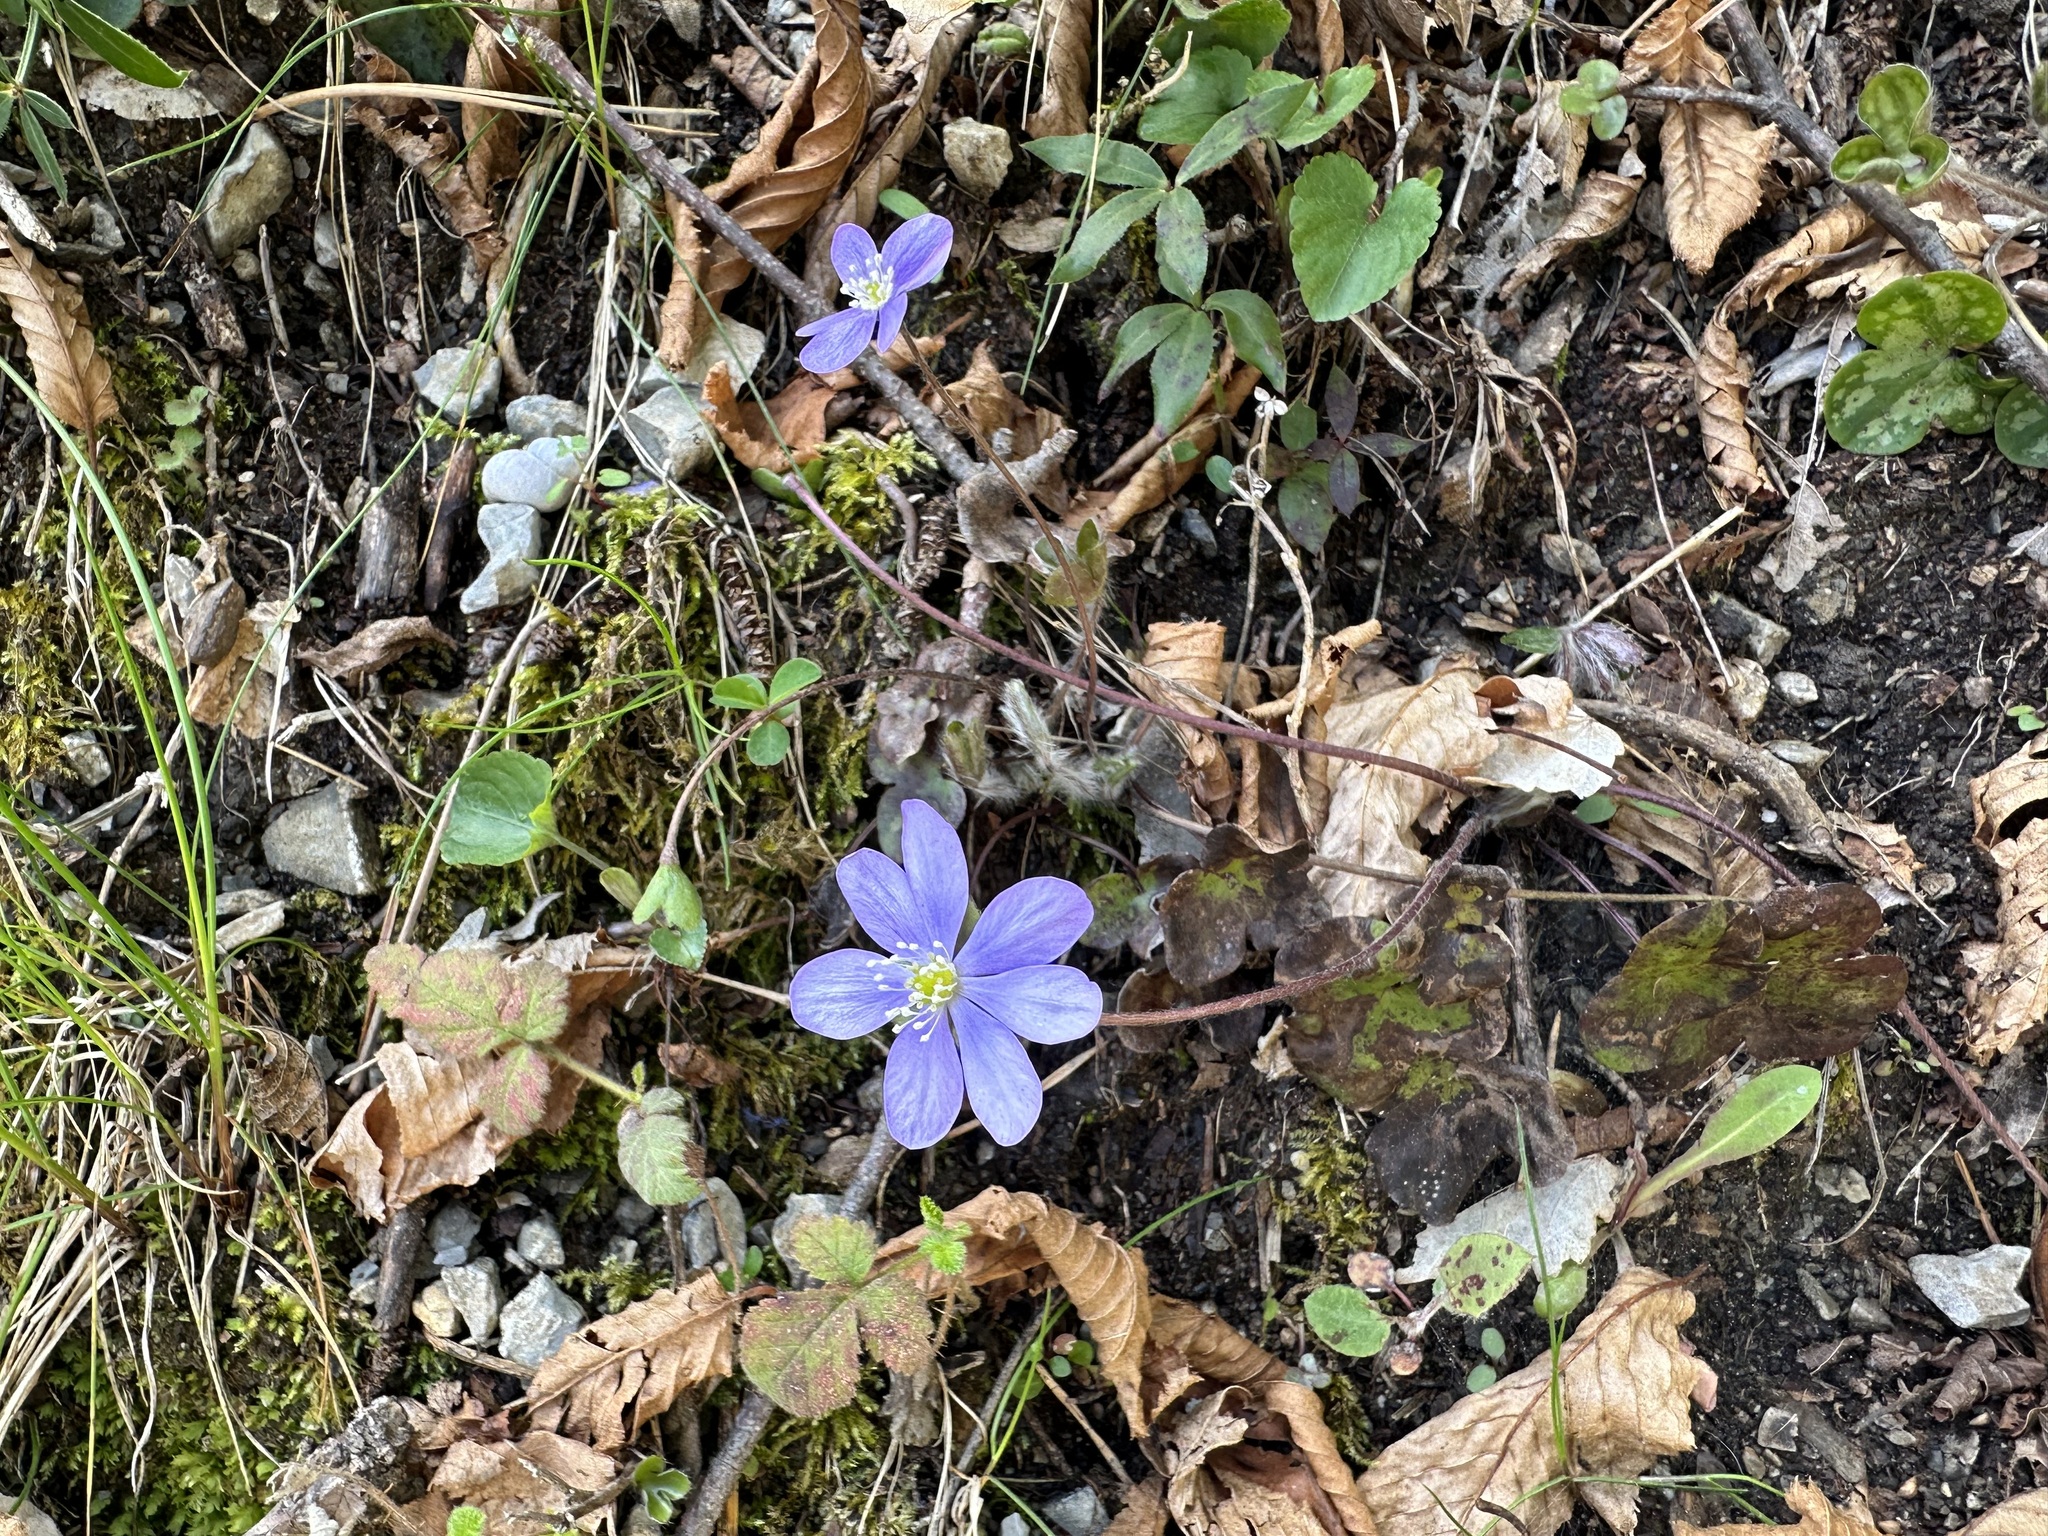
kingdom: Plantae
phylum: Tracheophyta
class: Magnoliopsida
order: Ranunculales
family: Ranunculaceae
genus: Hepatica
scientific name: Hepatica nobilis
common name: Liverleaf
